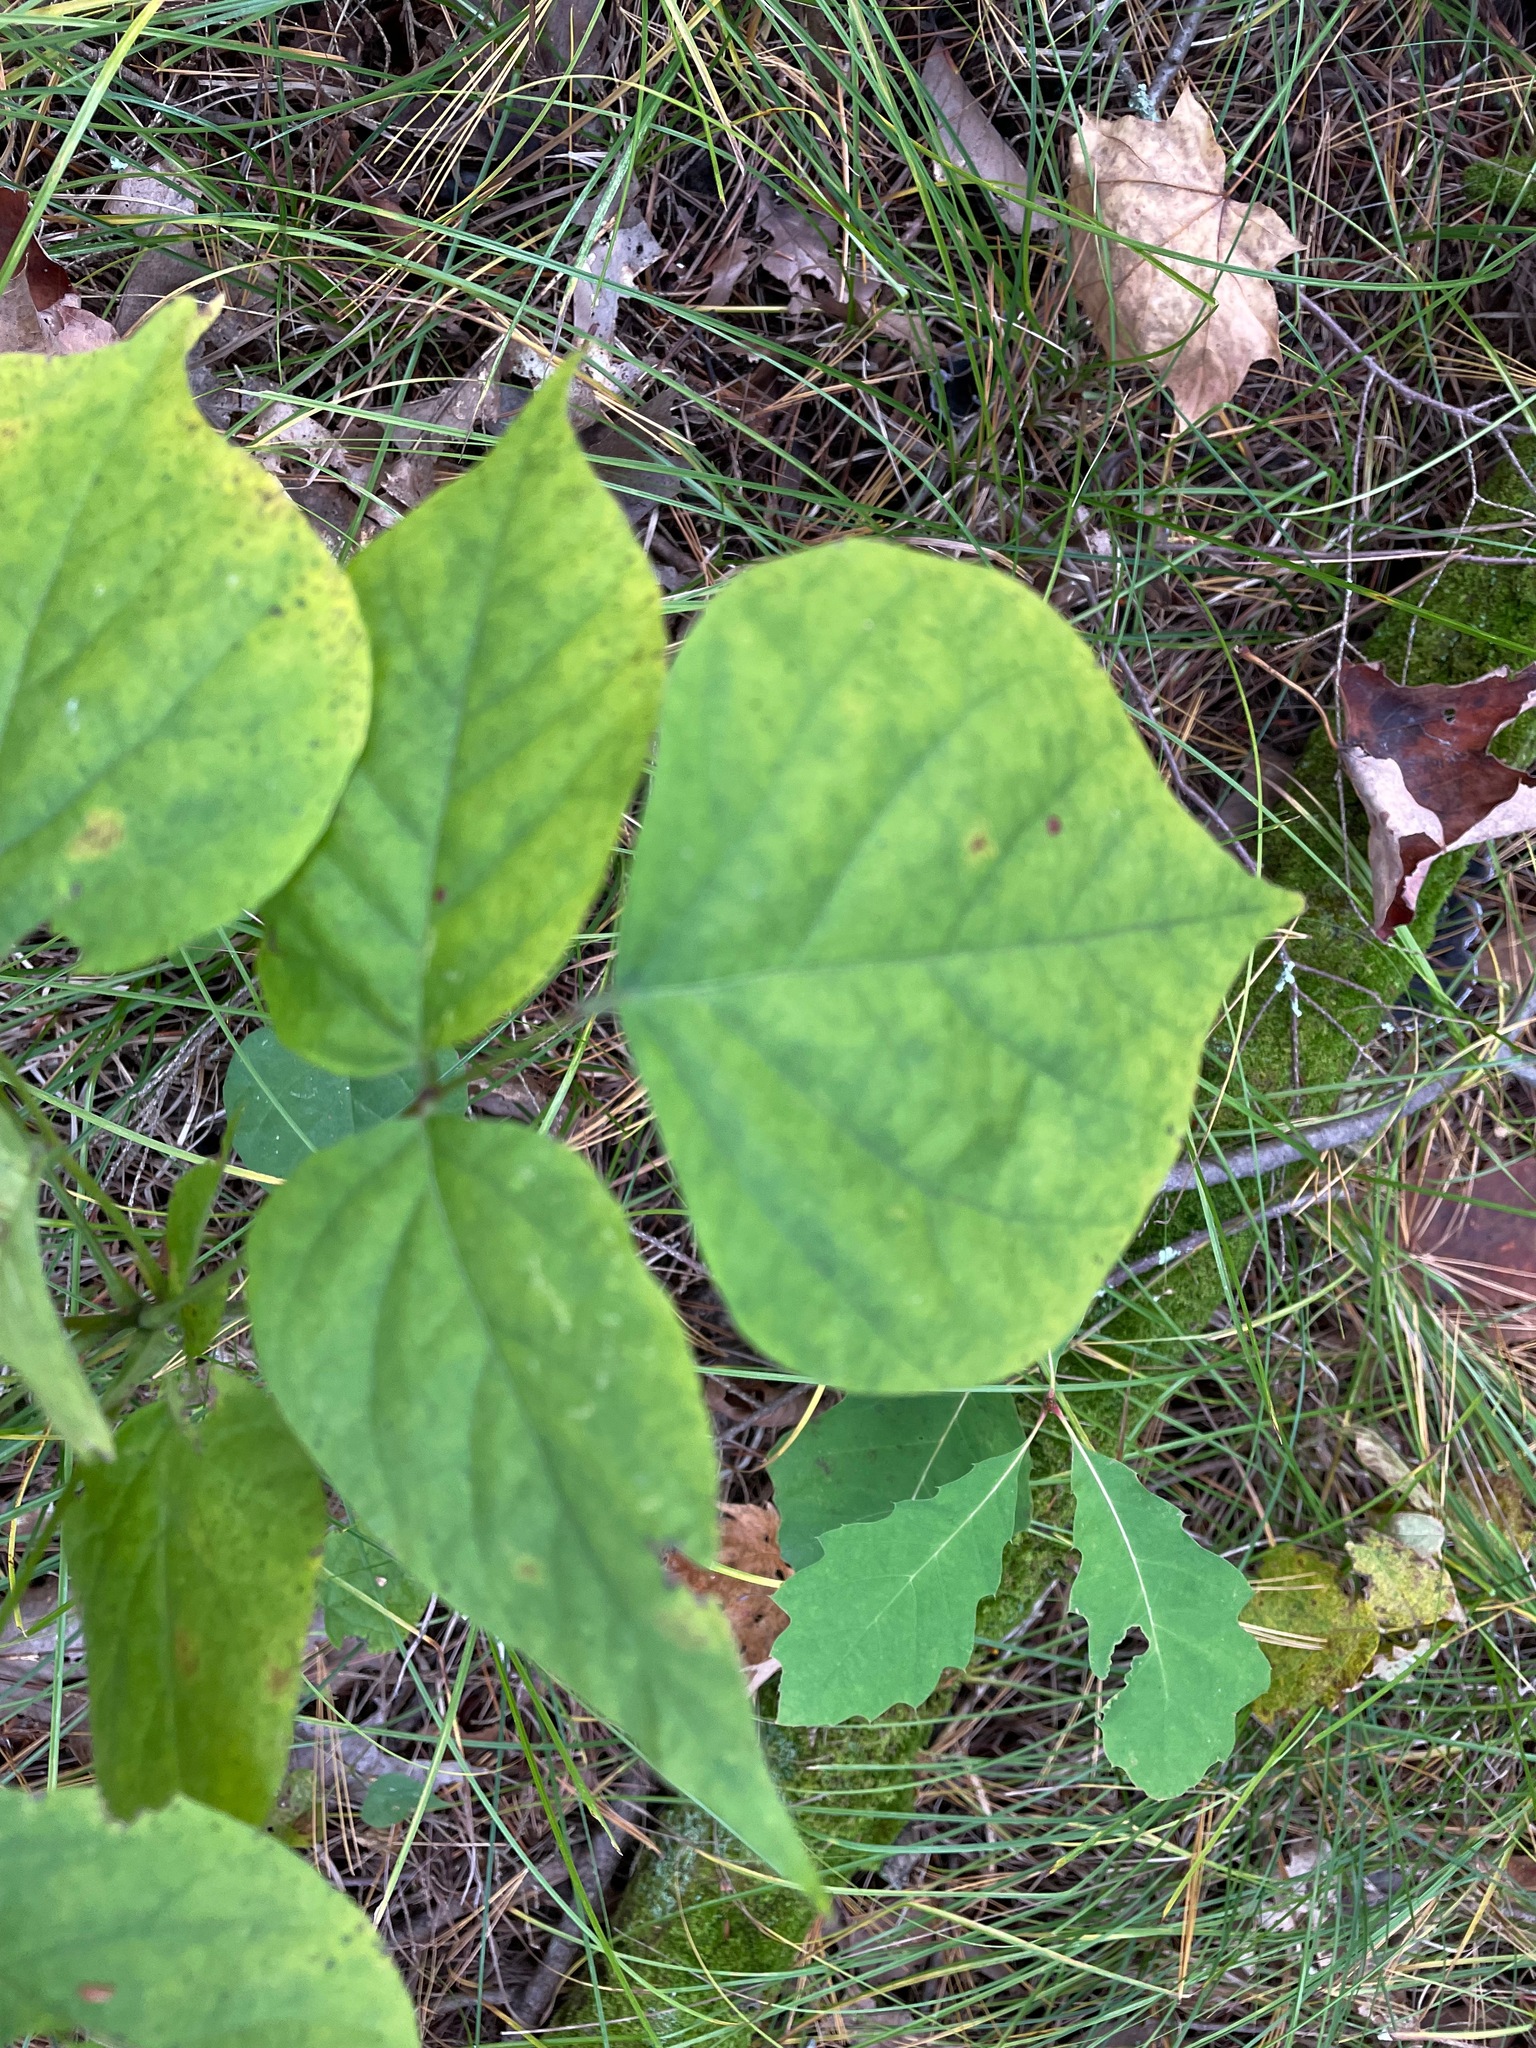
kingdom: Plantae
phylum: Tracheophyta
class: Magnoliopsida
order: Fabales
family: Fabaceae
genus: Hylodesmum
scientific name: Hylodesmum glutinosum
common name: Clustered-leaved tick-trefoil
